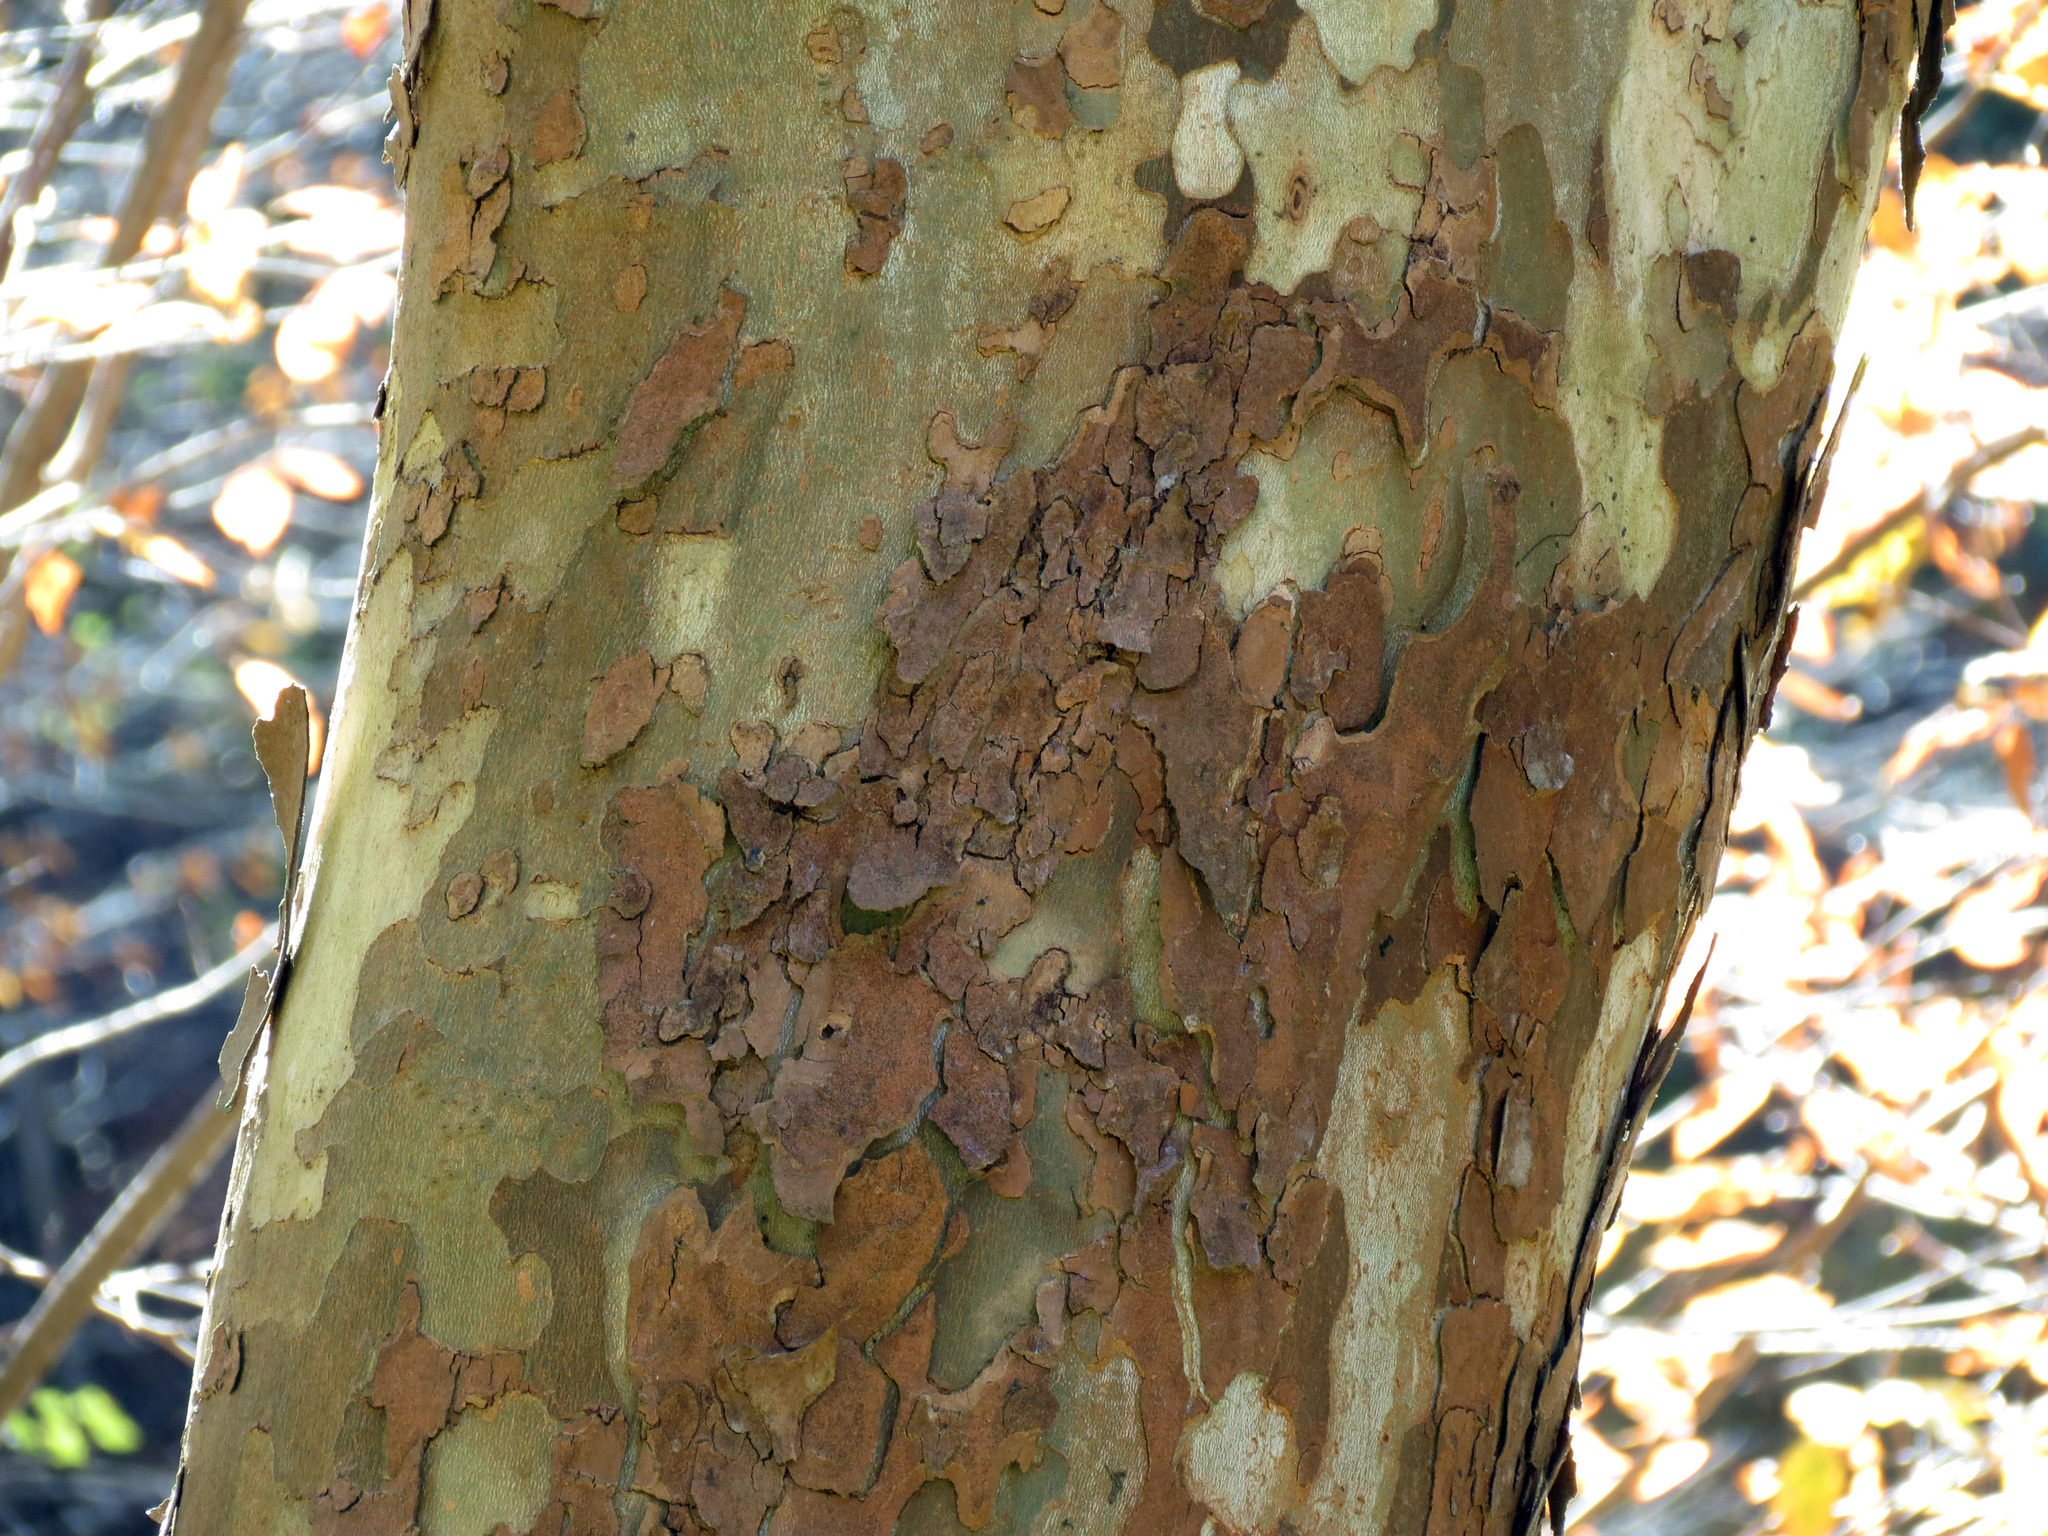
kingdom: Plantae
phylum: Tracheophyta
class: Magnoliopsida
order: Proteales
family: Platanaceae
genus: Platanus
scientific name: Platanus occidentalis
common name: American sycamore
